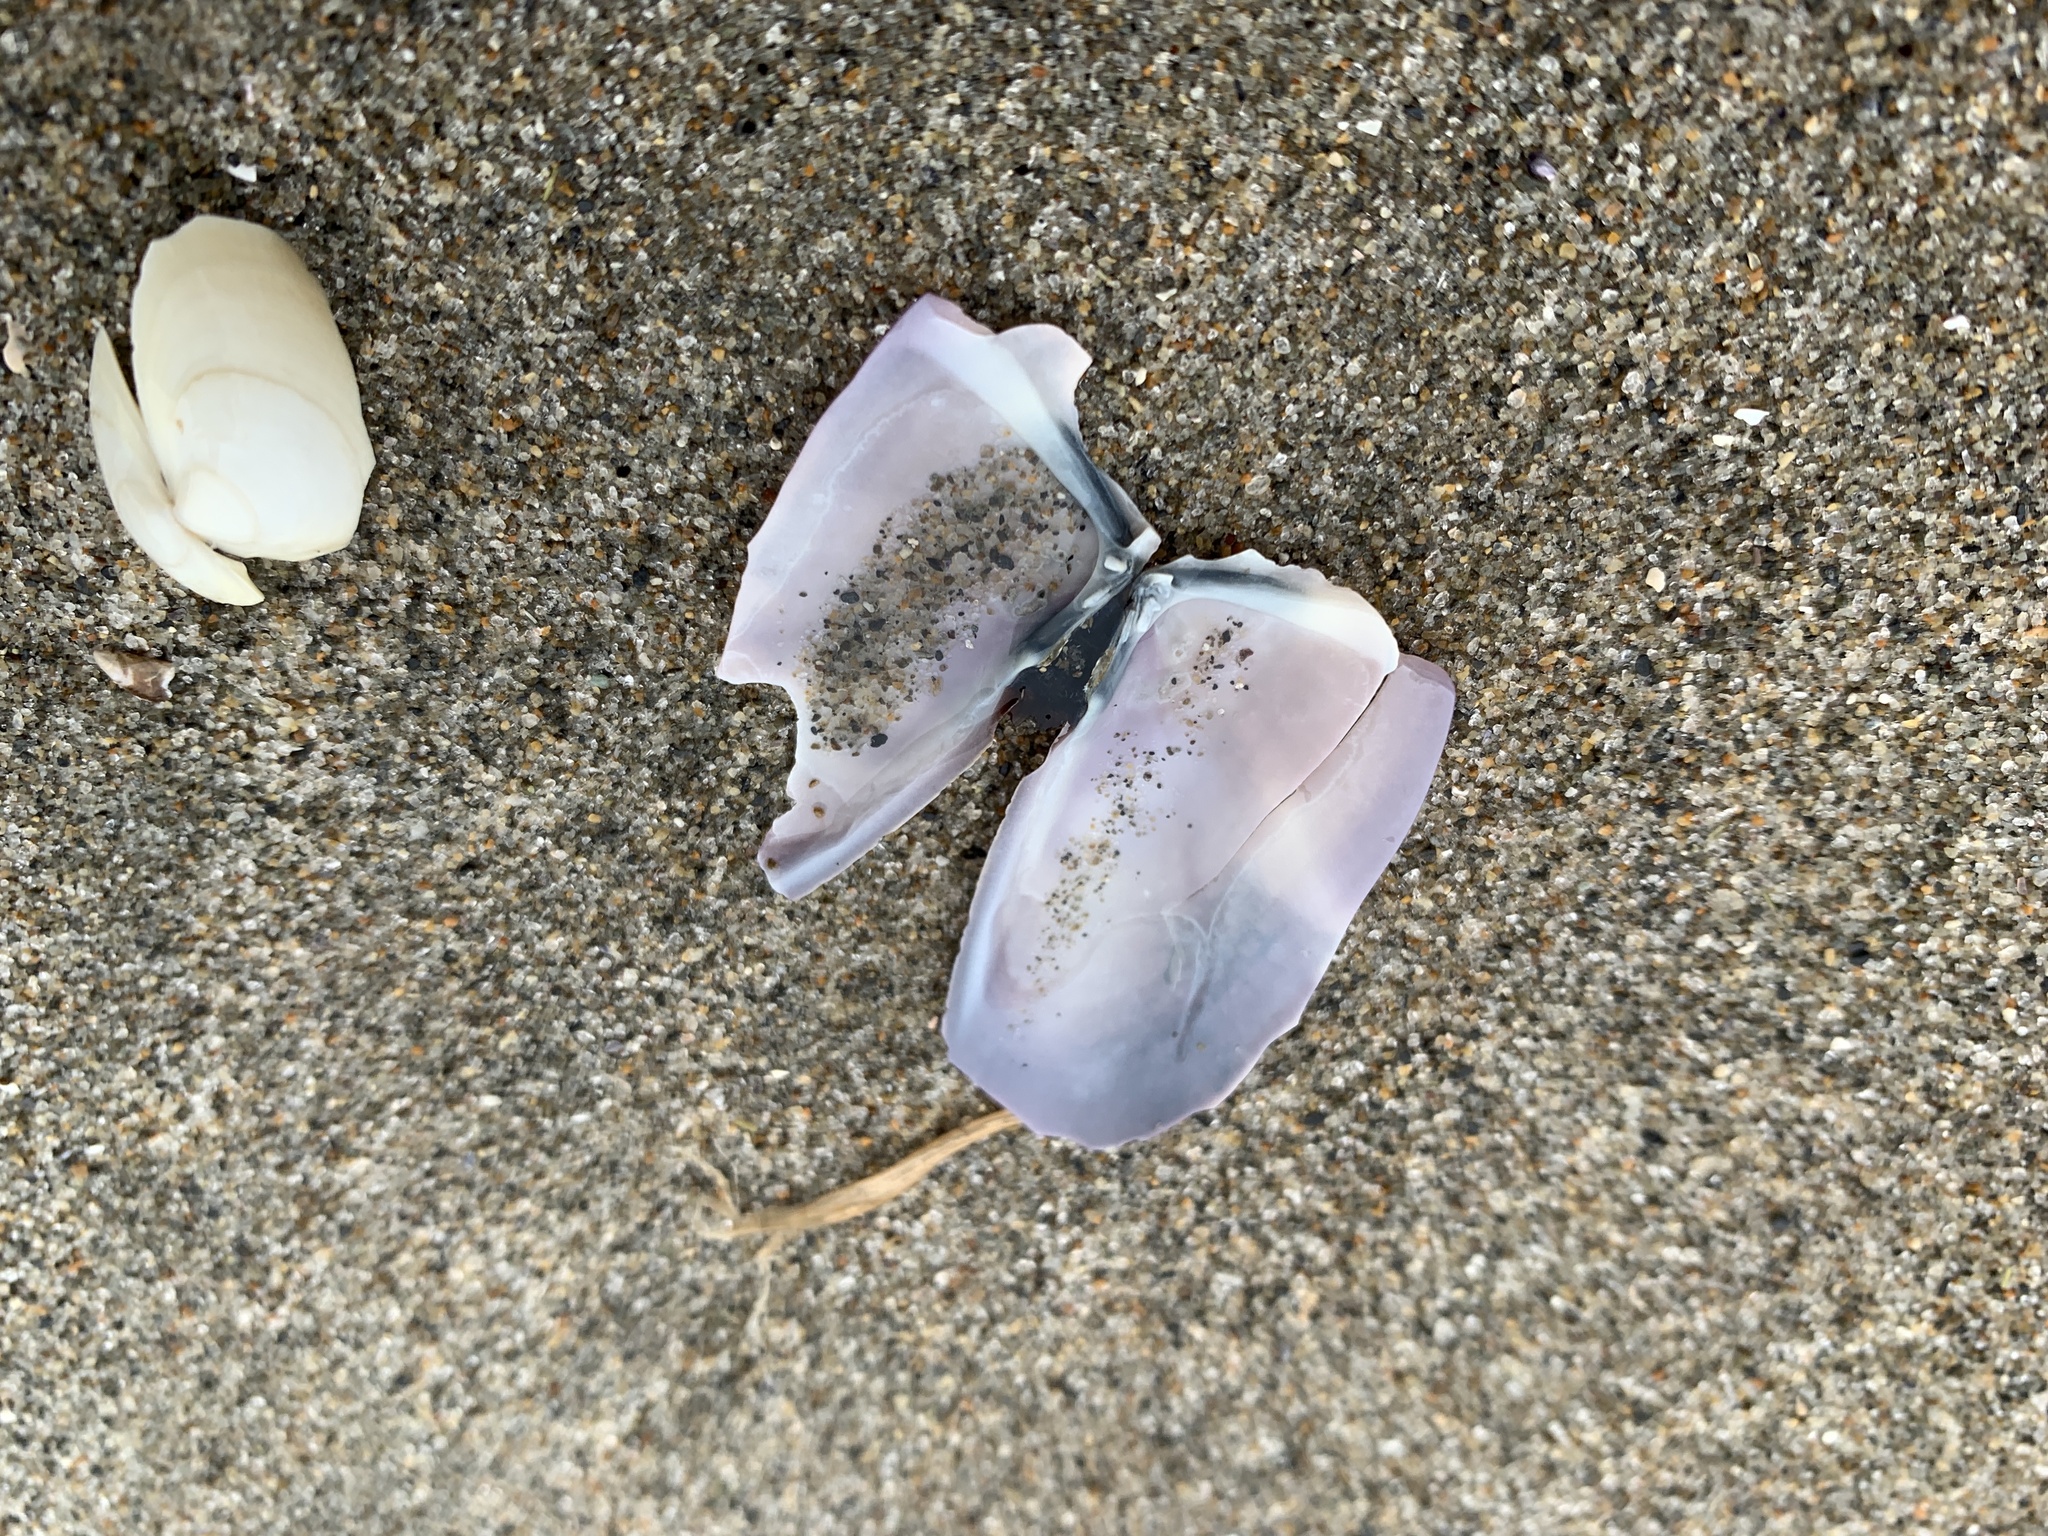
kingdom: Animalia
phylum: Mollusca
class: Bivalvia
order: Adapedonta
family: Pharidae
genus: Siliqua
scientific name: Siliqua costata
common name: Atlantic razor
